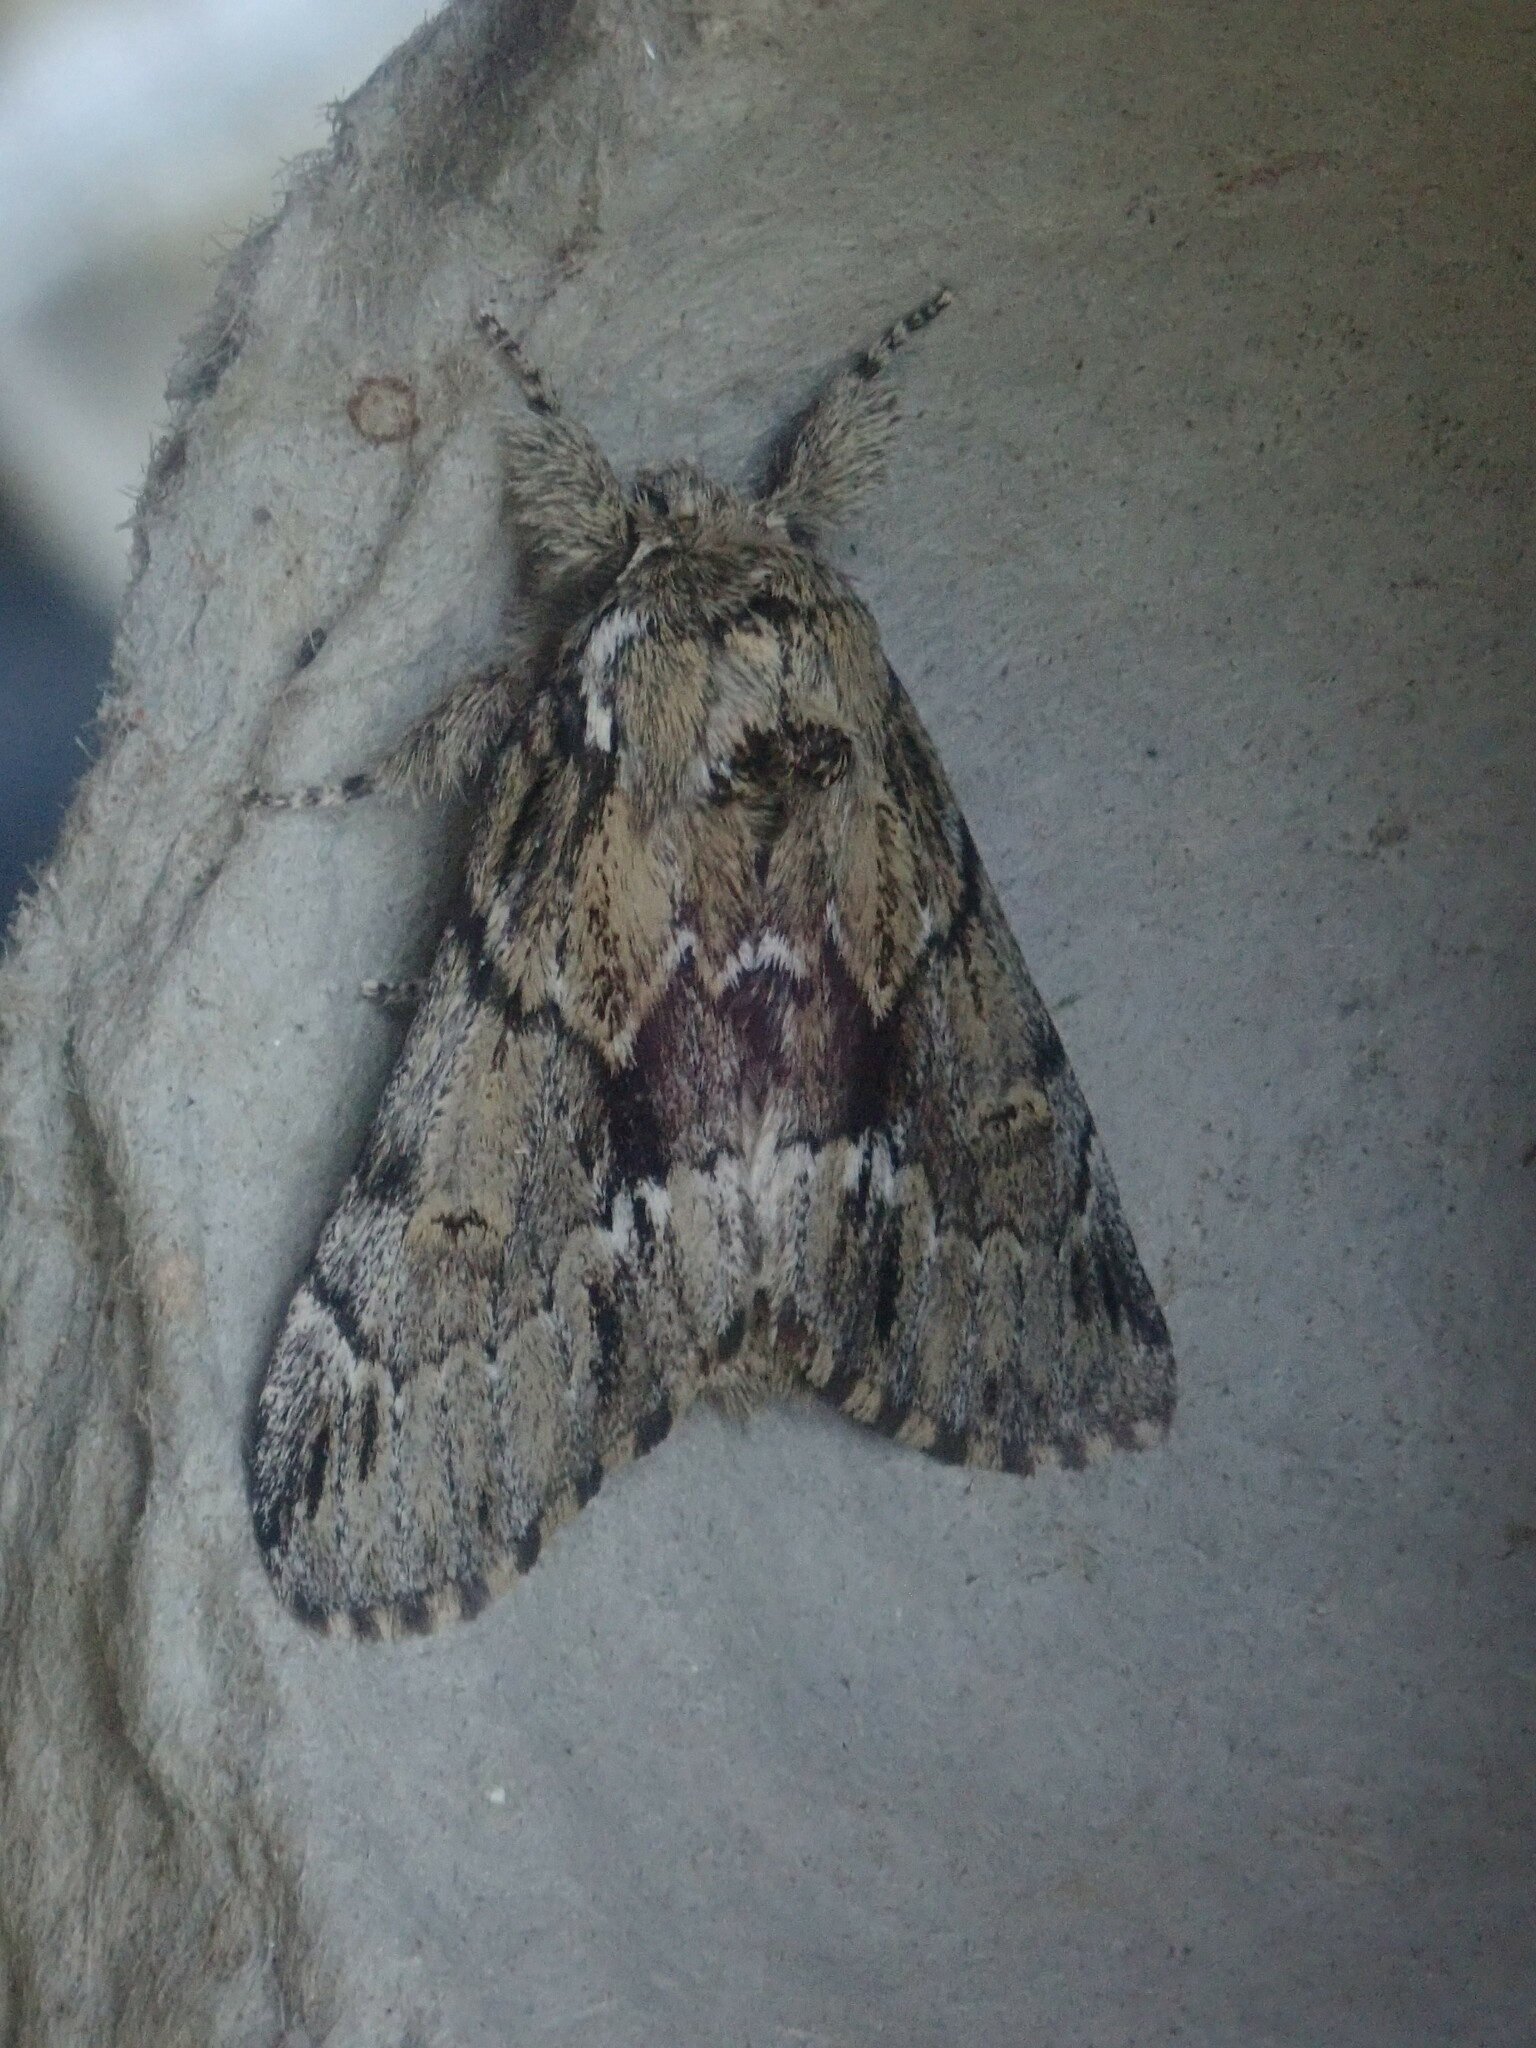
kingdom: Animalia
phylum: Arthropoda
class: Insecta
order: Lepidoptera
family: Notodontidae
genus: Paraeschra
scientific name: Paraeschra georgica
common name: Georgian prominent
